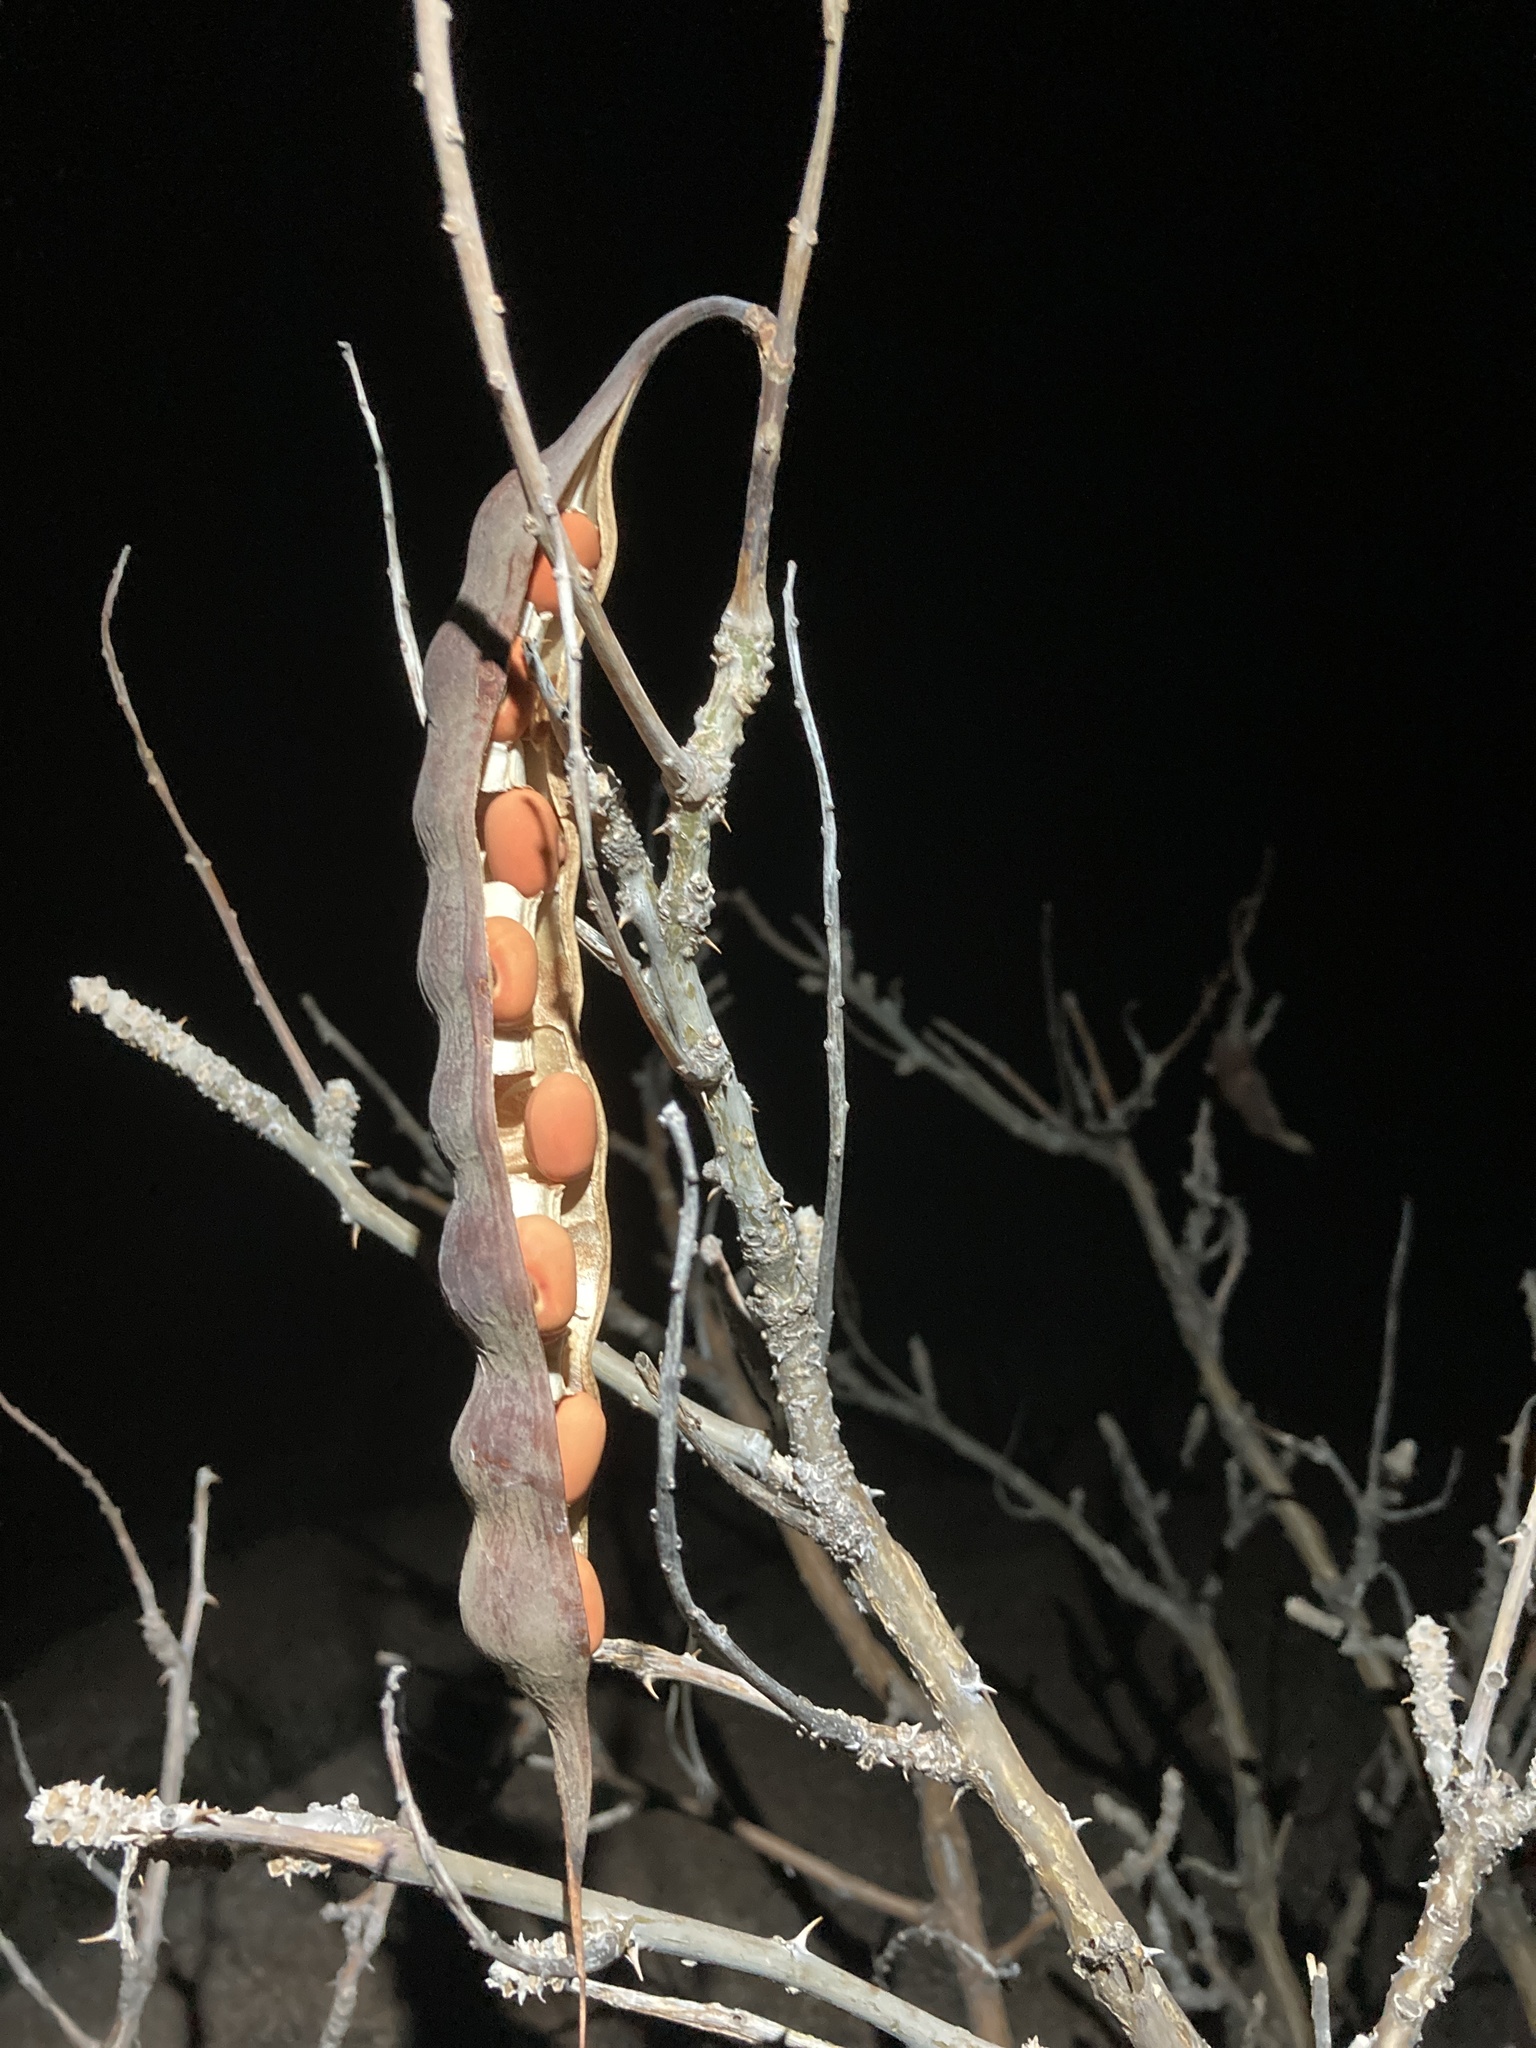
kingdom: Plantae
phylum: Tracheophyta
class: Magnoliopsida
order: Fabales
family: Fabaceae
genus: Erythrina
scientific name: Erythrina flabelliformis
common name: Chilicote
